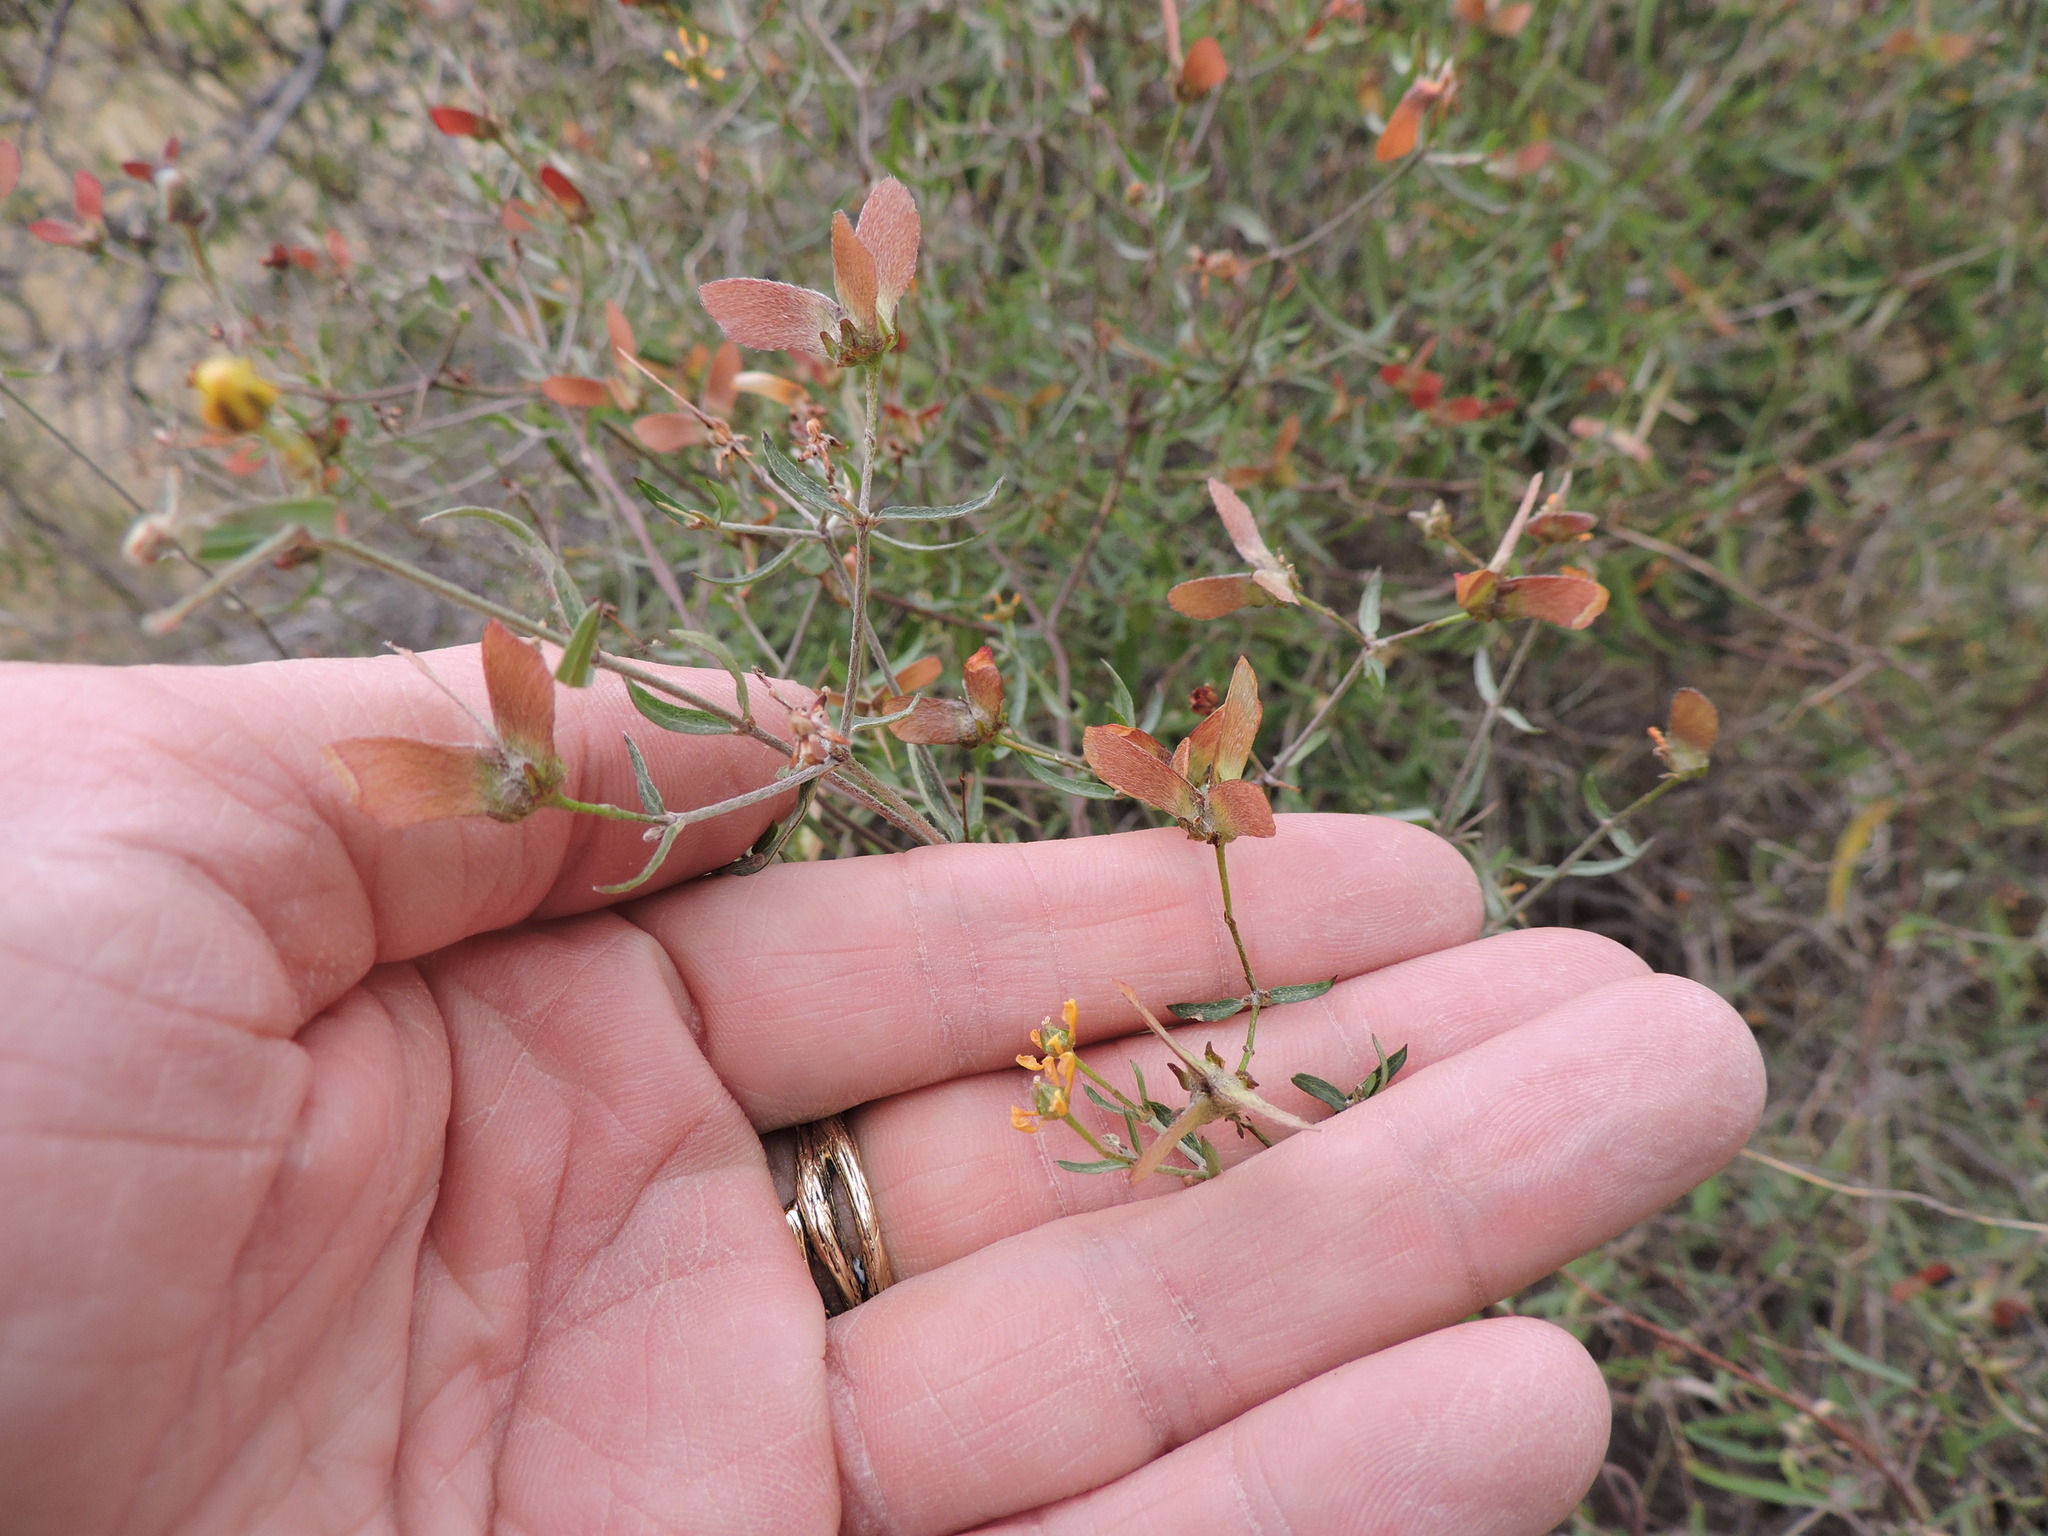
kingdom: Plantae
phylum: Tracheophyta
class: Magnoliopsida
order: Malpighiales
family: Malpighiaceae
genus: Cottsia
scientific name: Cottsia gracilis
